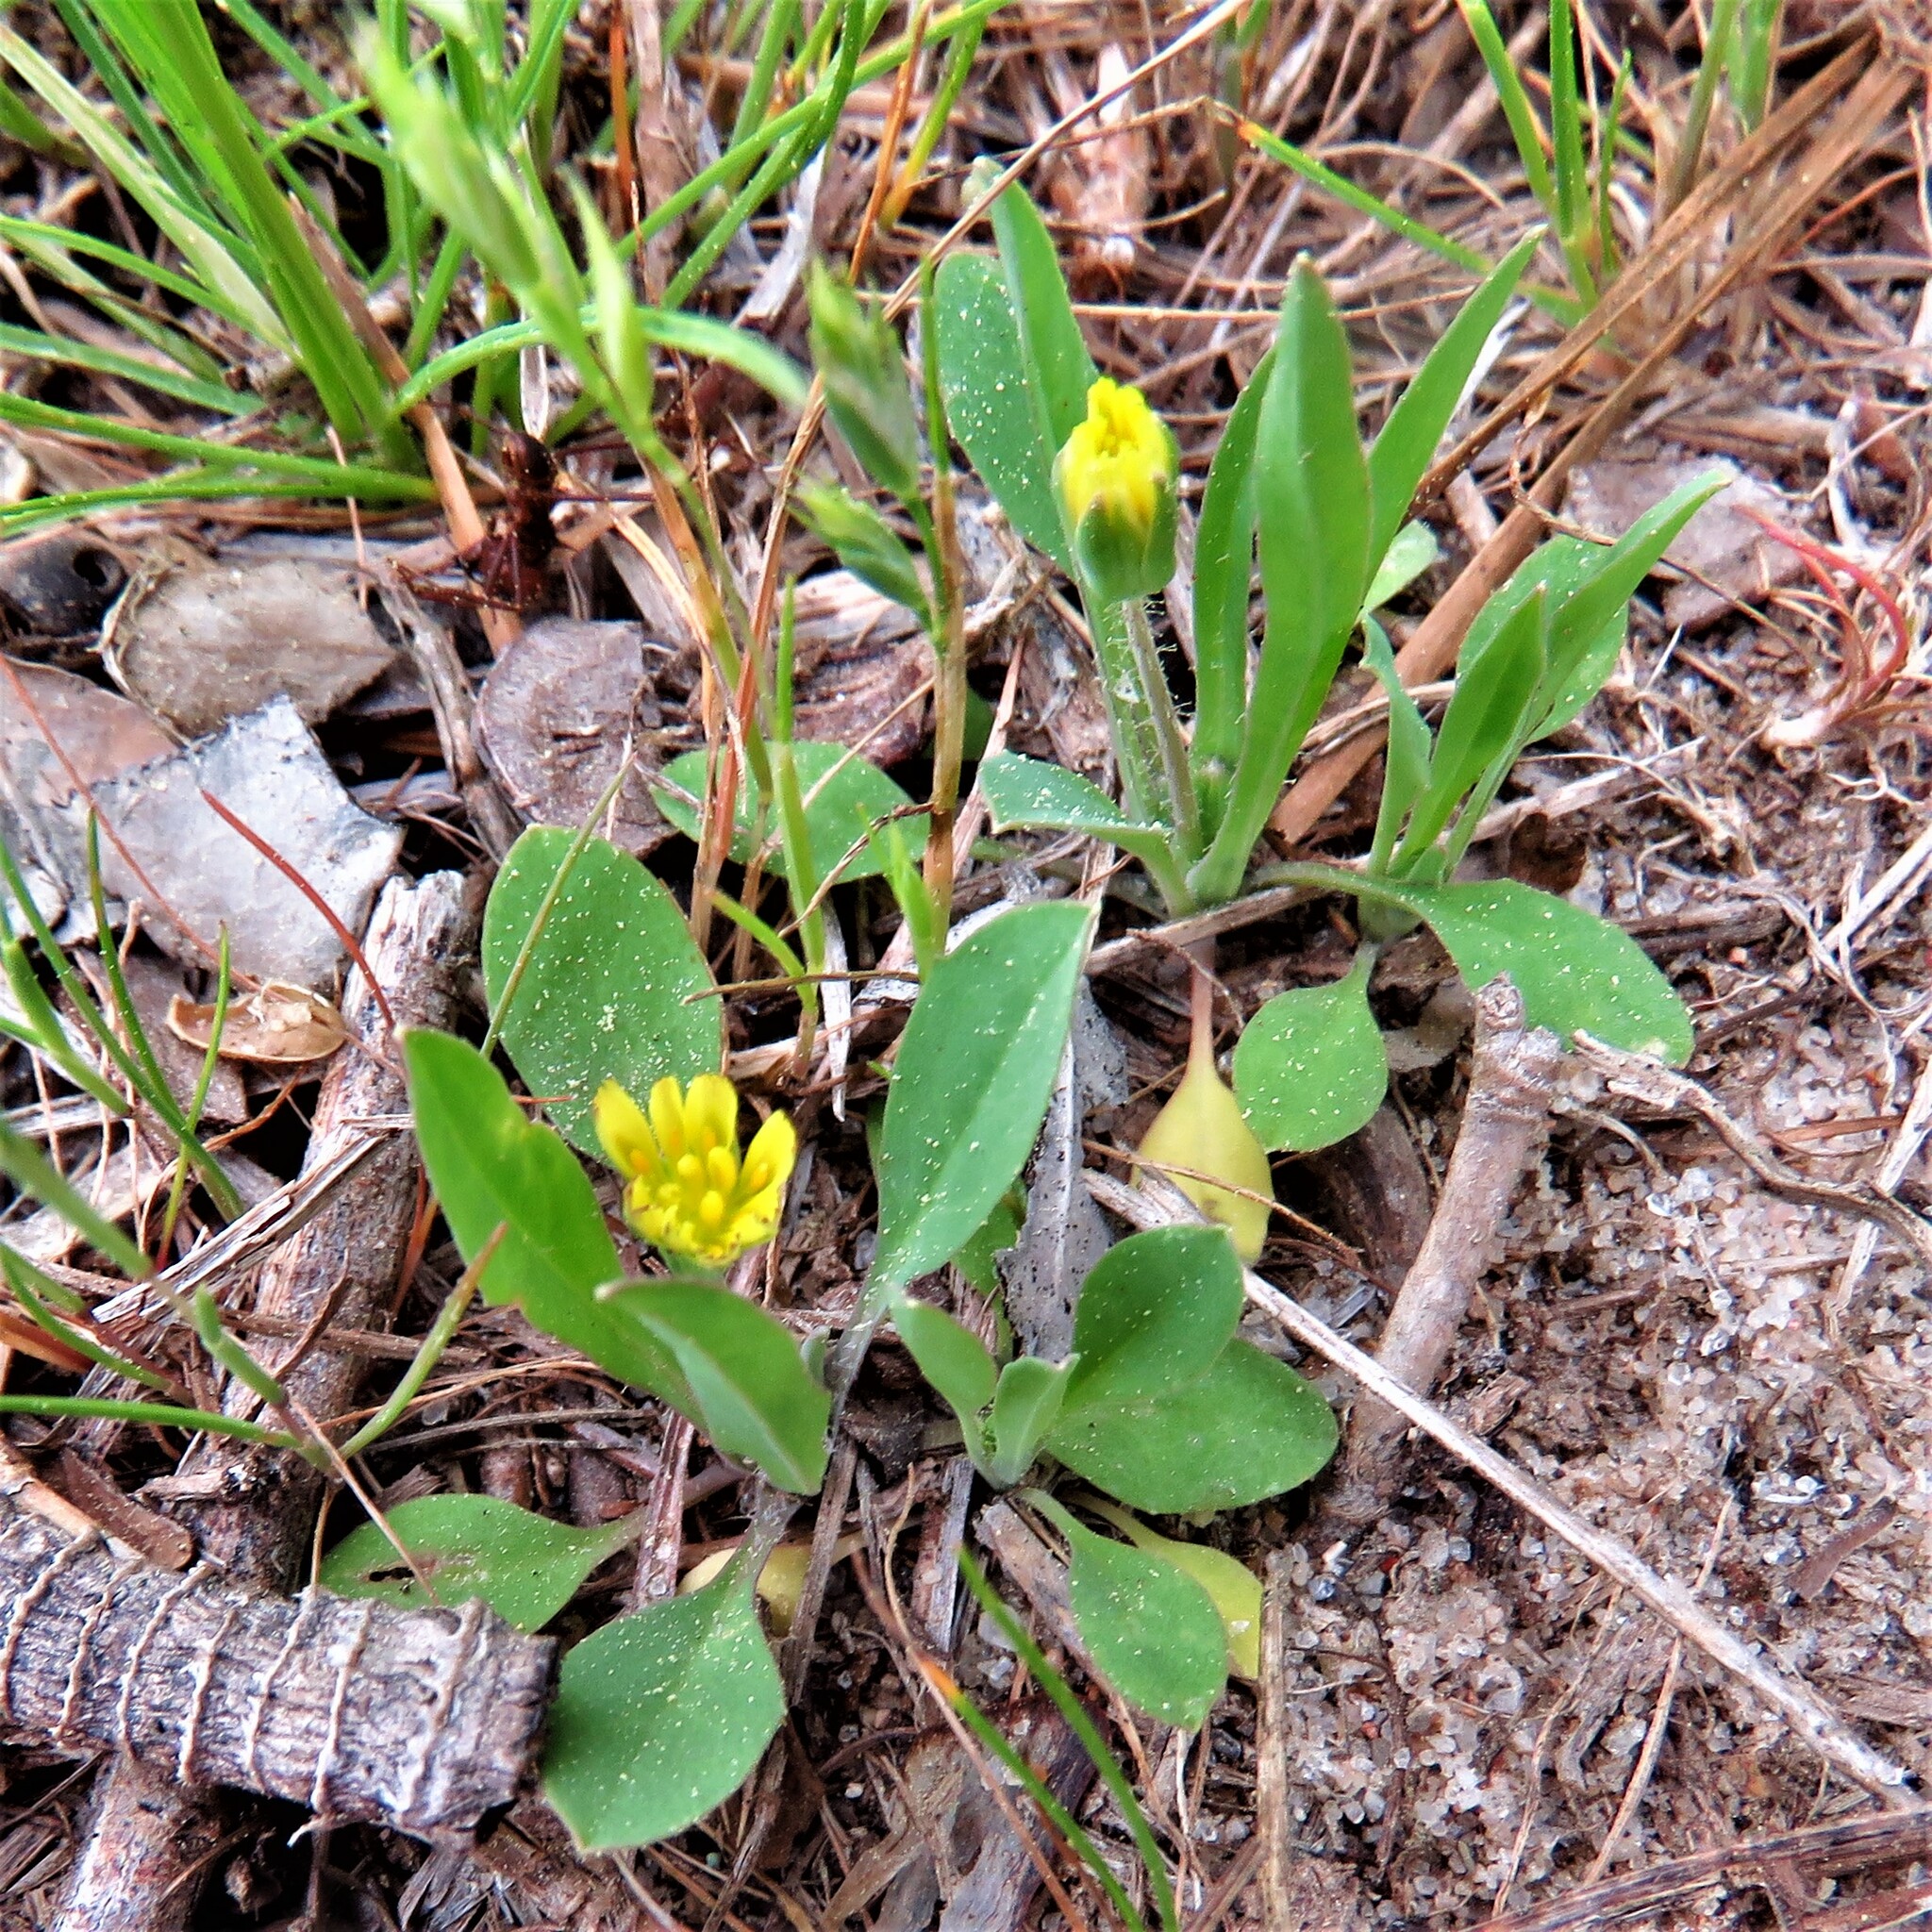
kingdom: Plantae
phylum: Tracheophyta
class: Magnoliopsida
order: Asterales
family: Asteraceae
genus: Krigia
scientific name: Krigia occidentalis
